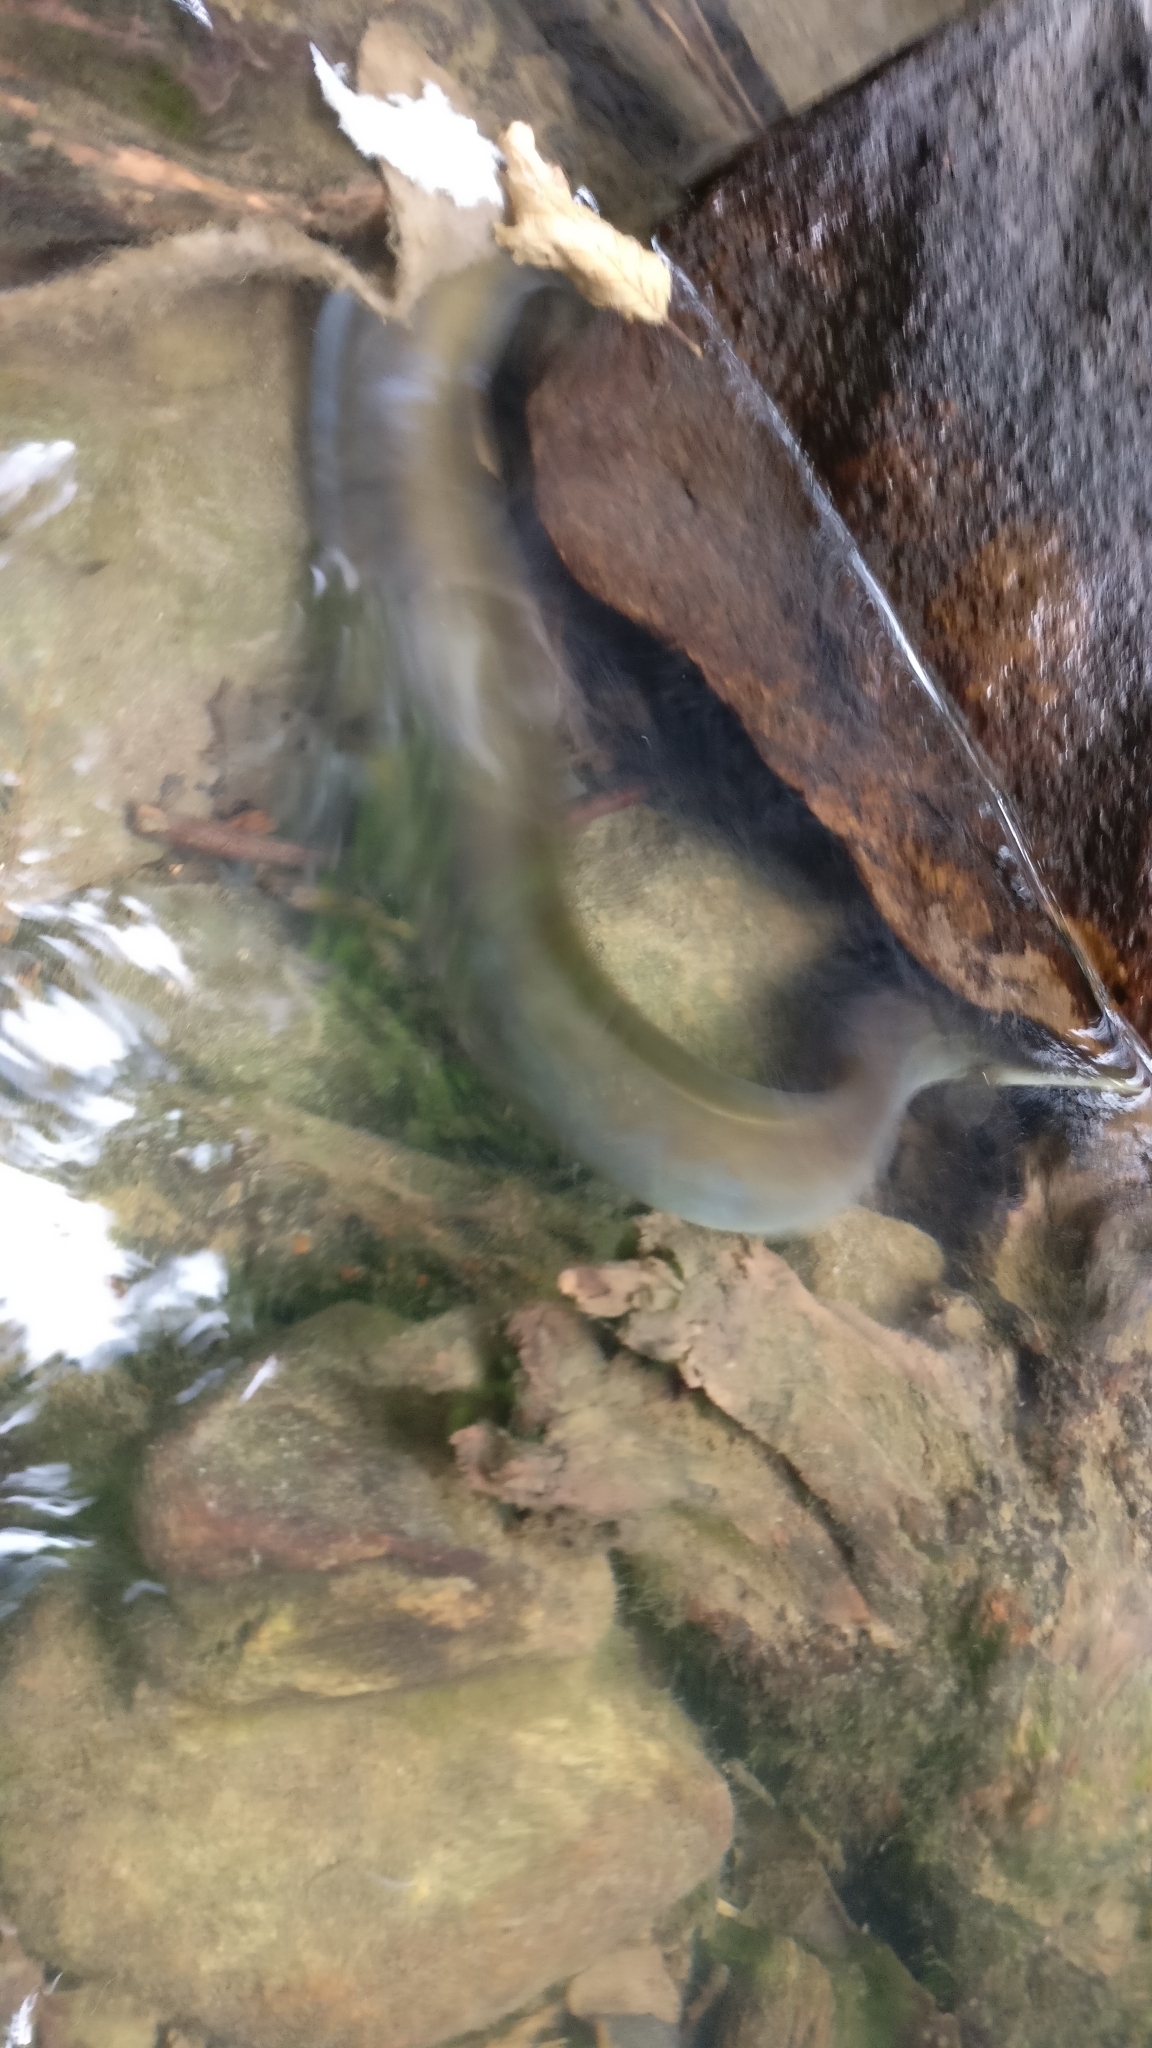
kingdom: Animalia
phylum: Chordata
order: Anguilliformes
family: Anguillidae
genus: Anguilla
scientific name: Anguilla anguilla
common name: European eel
